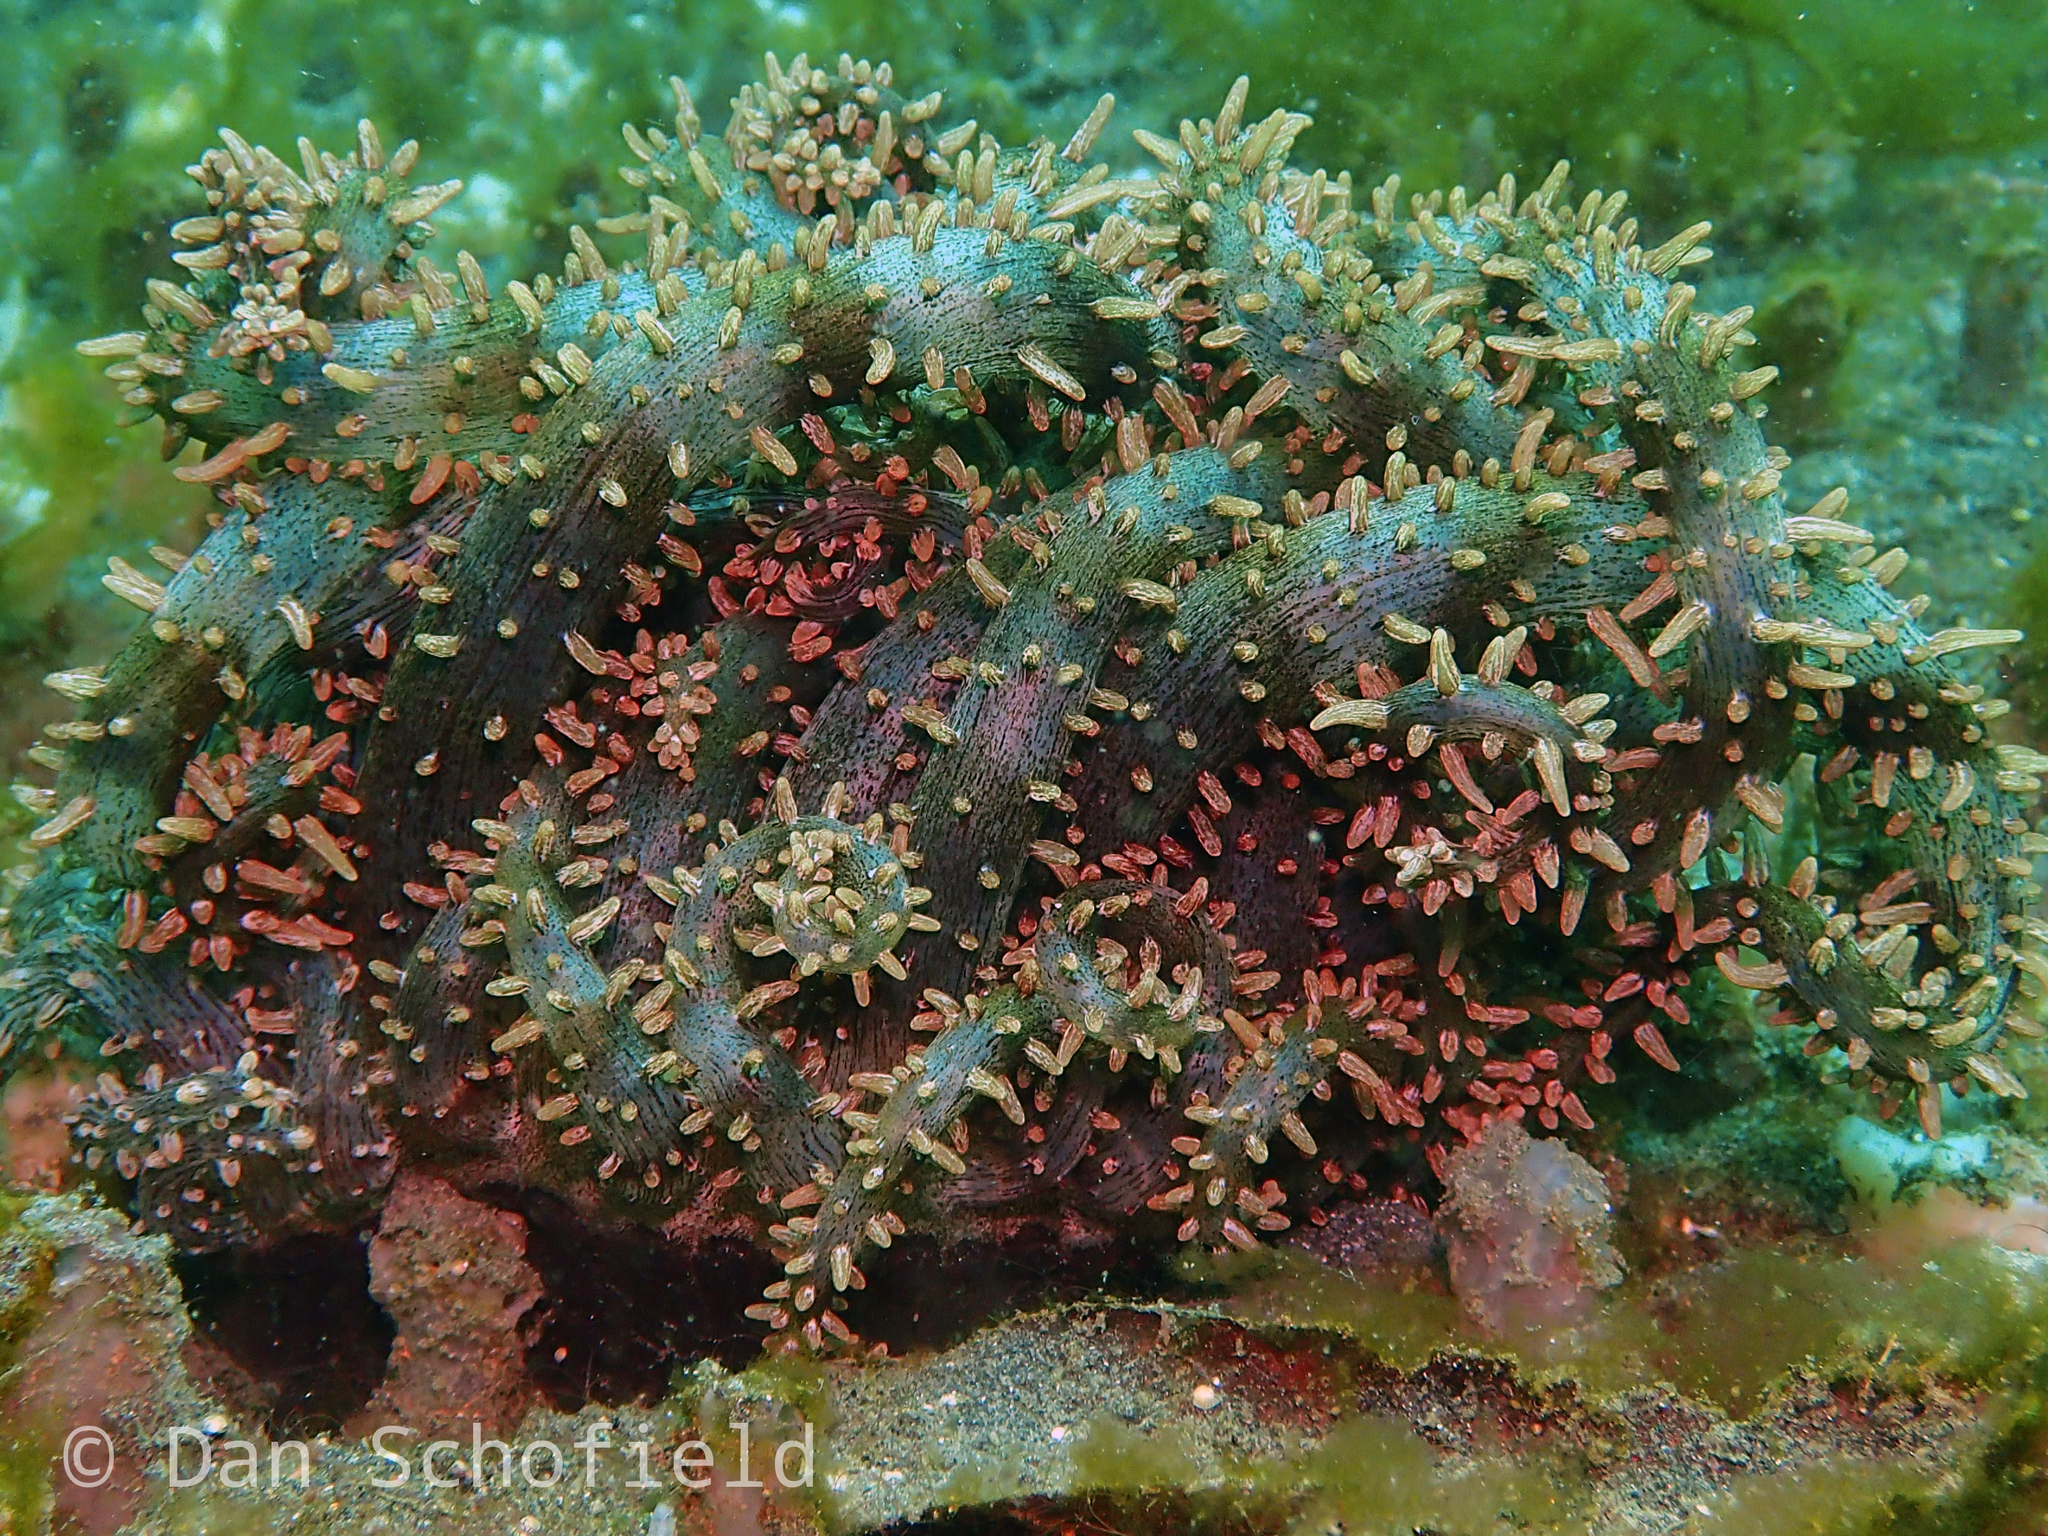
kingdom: Animalia
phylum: Cnidaria
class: Anthozoa
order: Actiniaria
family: Actinodendridae
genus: Actinostephanus
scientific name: Actinostephanus haeckeli
